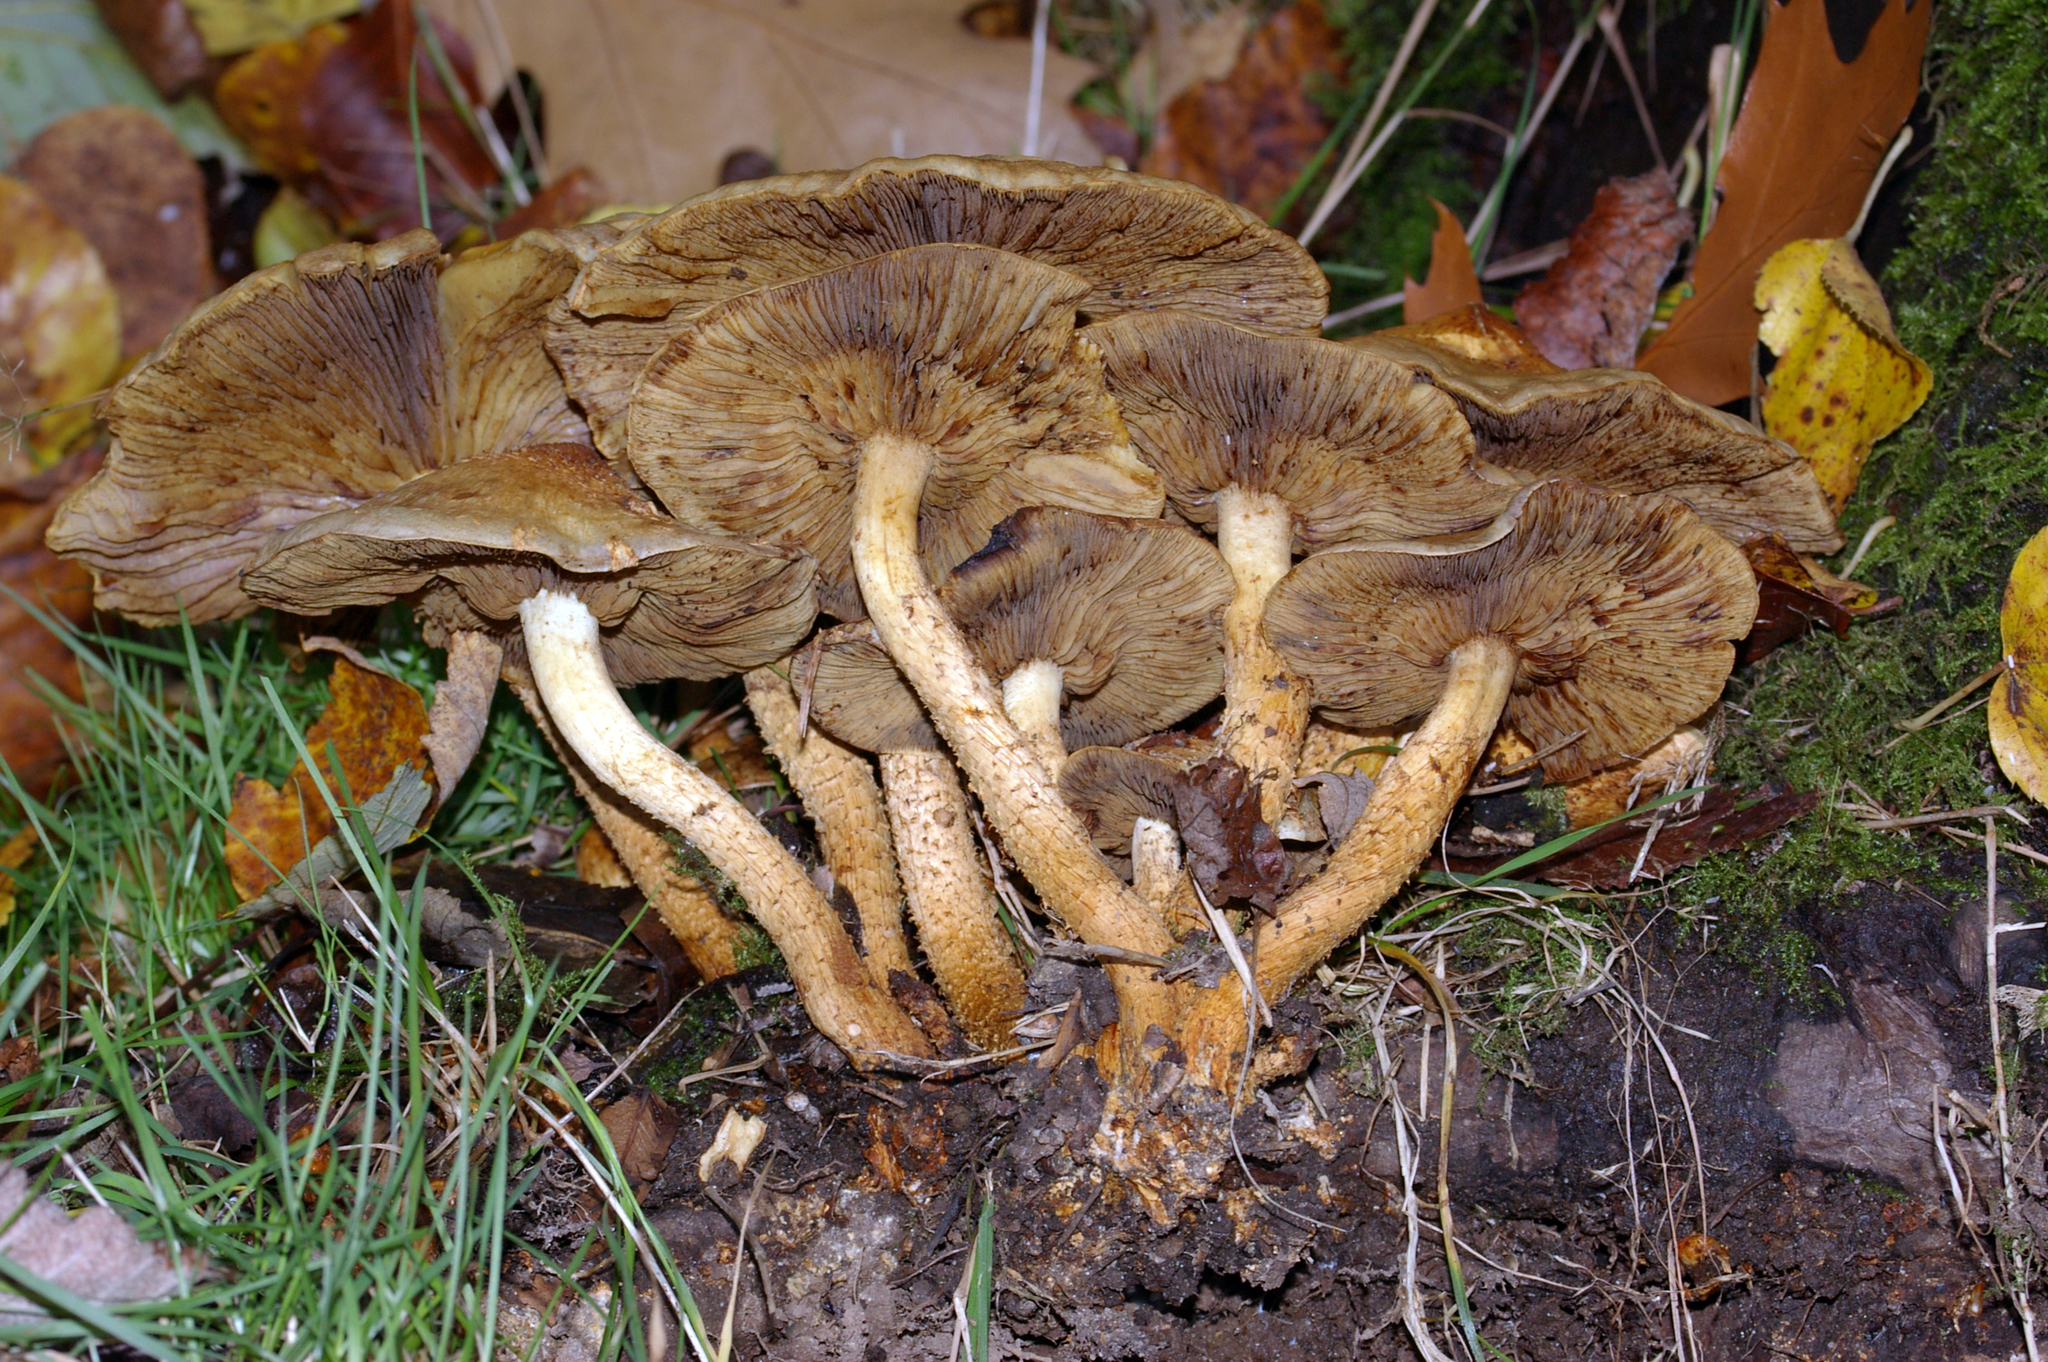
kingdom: Fungi
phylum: Basidiomycota
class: Agaricomycetes
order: Agaricales
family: Strophariaceae
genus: Pholiota
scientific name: Pholiota squarrosa
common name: Shaggy pholiota
